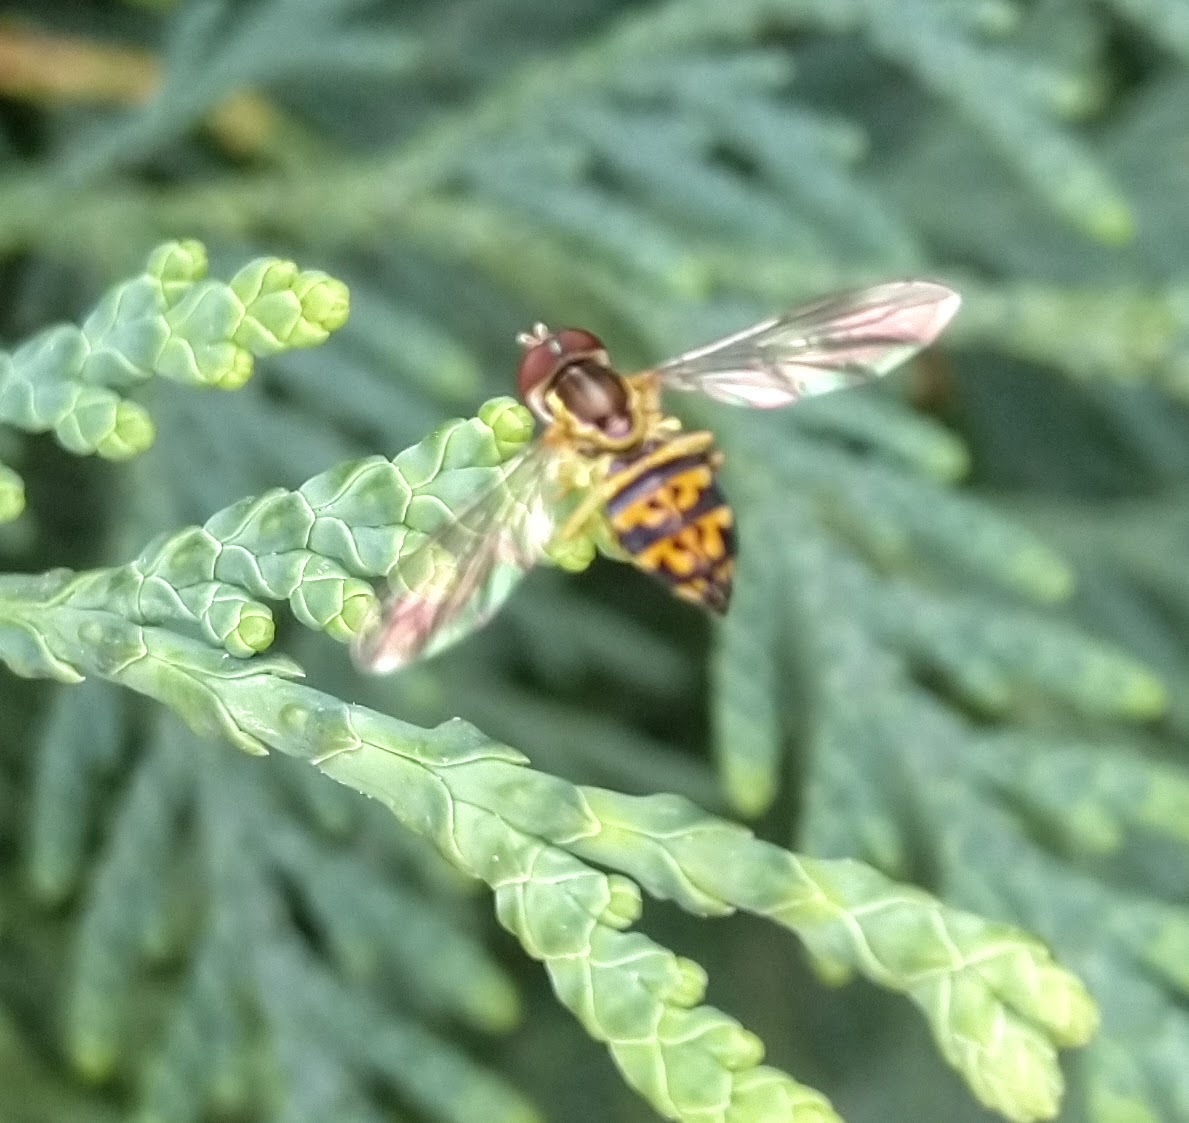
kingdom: Animalia
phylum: Arthropoda
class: Insecta
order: Diptera
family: Syrphidae
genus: Toxomerus
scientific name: Toxomerus geminatus
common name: Eastern calligrapher
